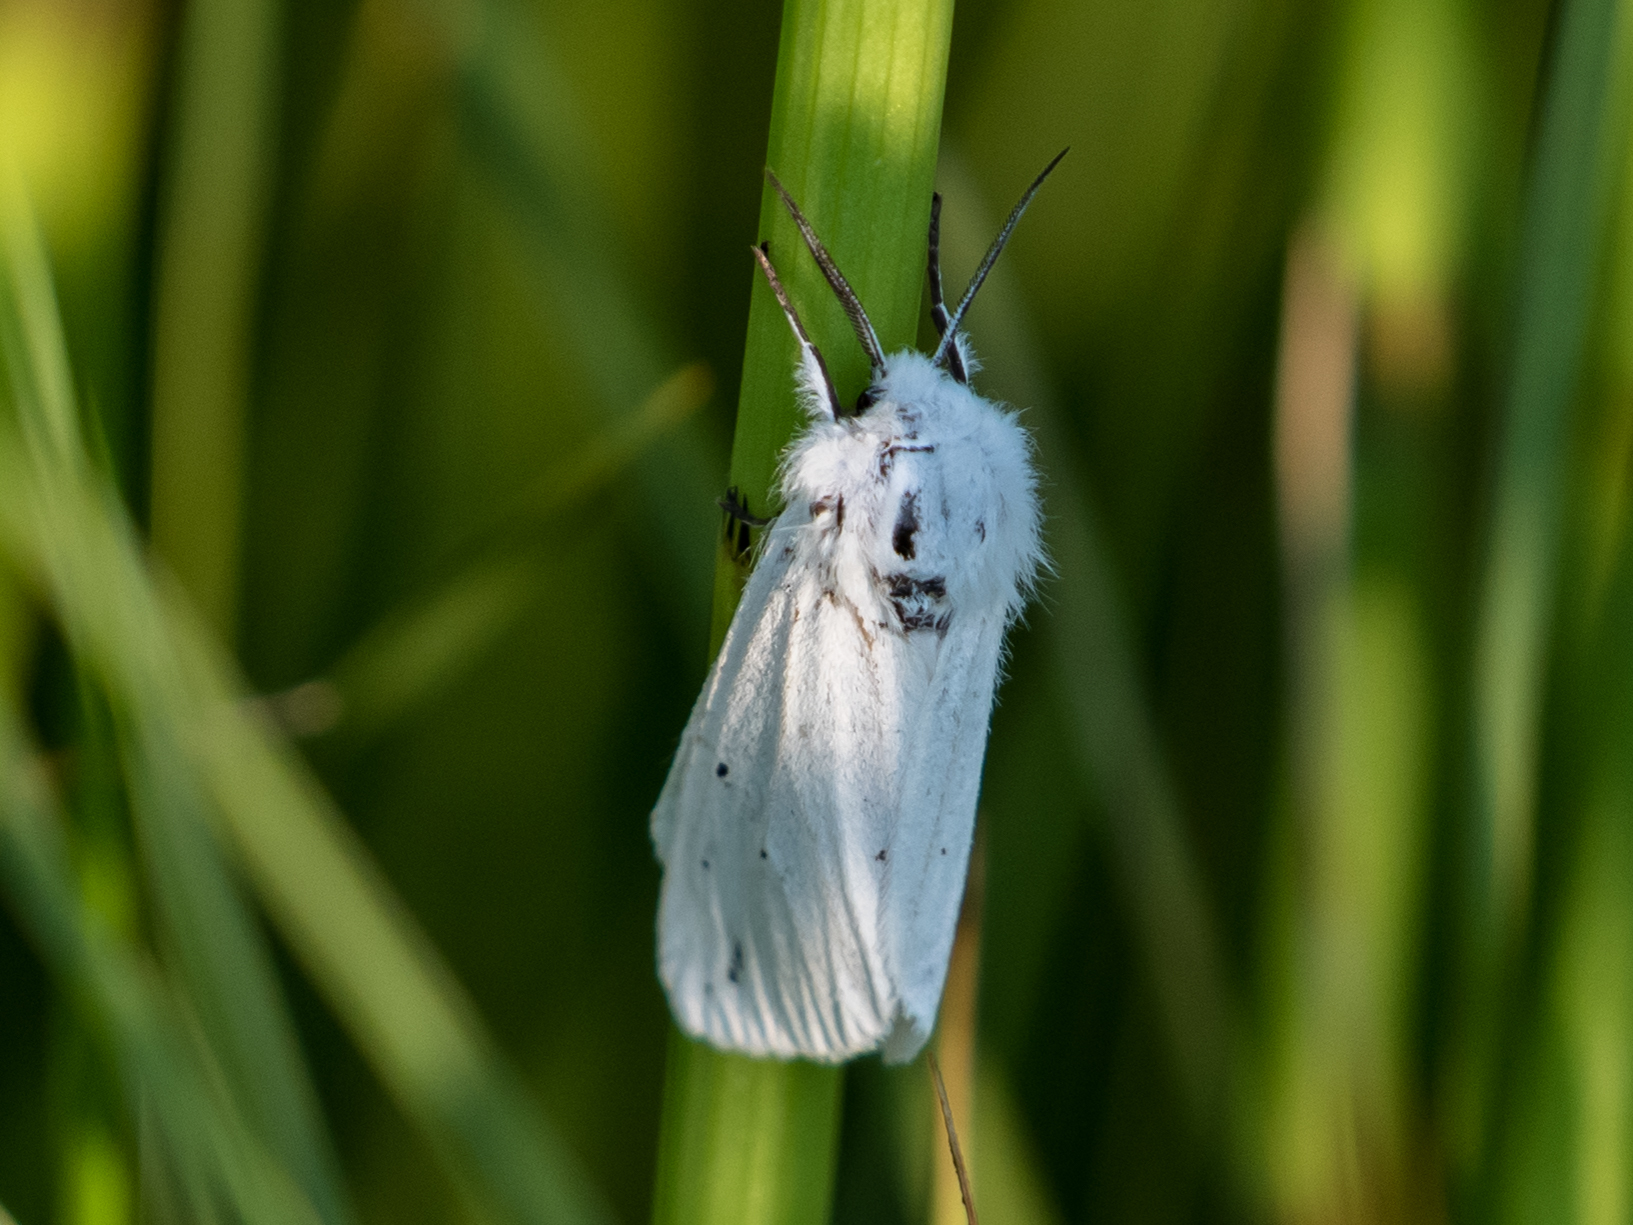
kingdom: Animalia
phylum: Arthropoda
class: Insecta
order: Lepidoptera
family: Erebidae
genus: Spilosoma
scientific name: Spilosoma urticae
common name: Water ermine
